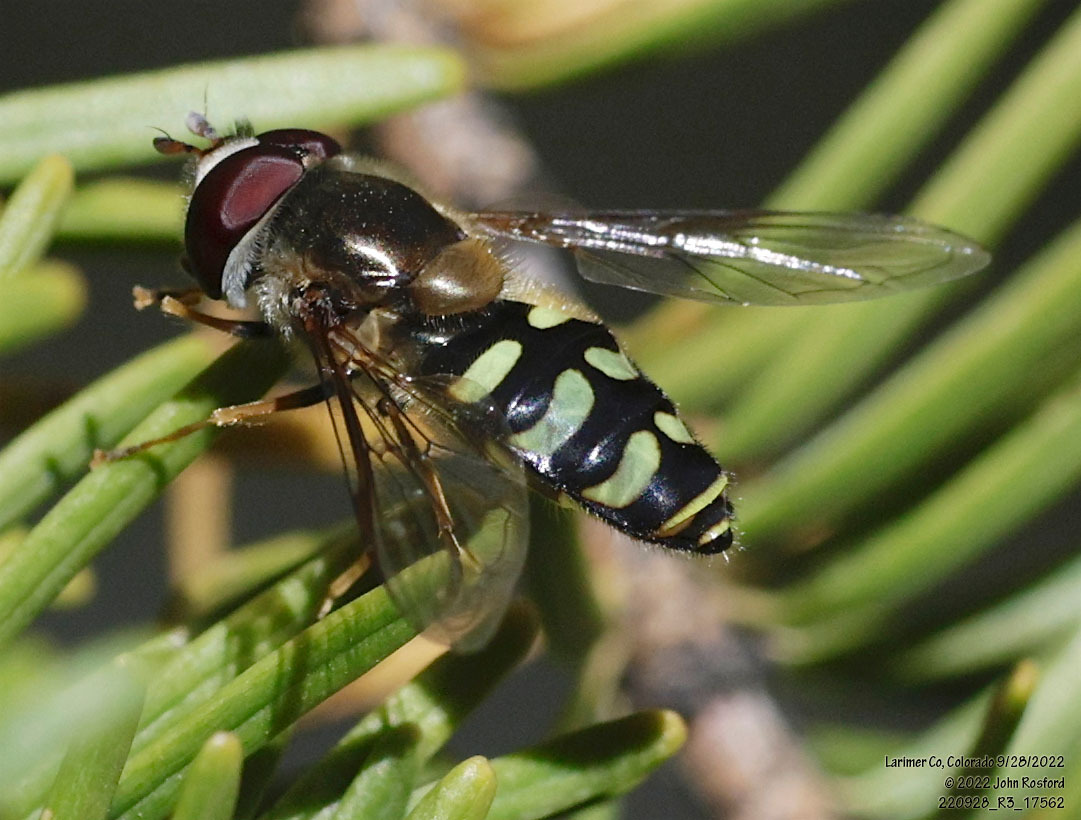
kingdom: Animalia
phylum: Arthropoda
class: Insecta
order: Diptera
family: Syrphidae
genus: Lapposyrphus
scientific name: Lapposyrphus lapponicus
